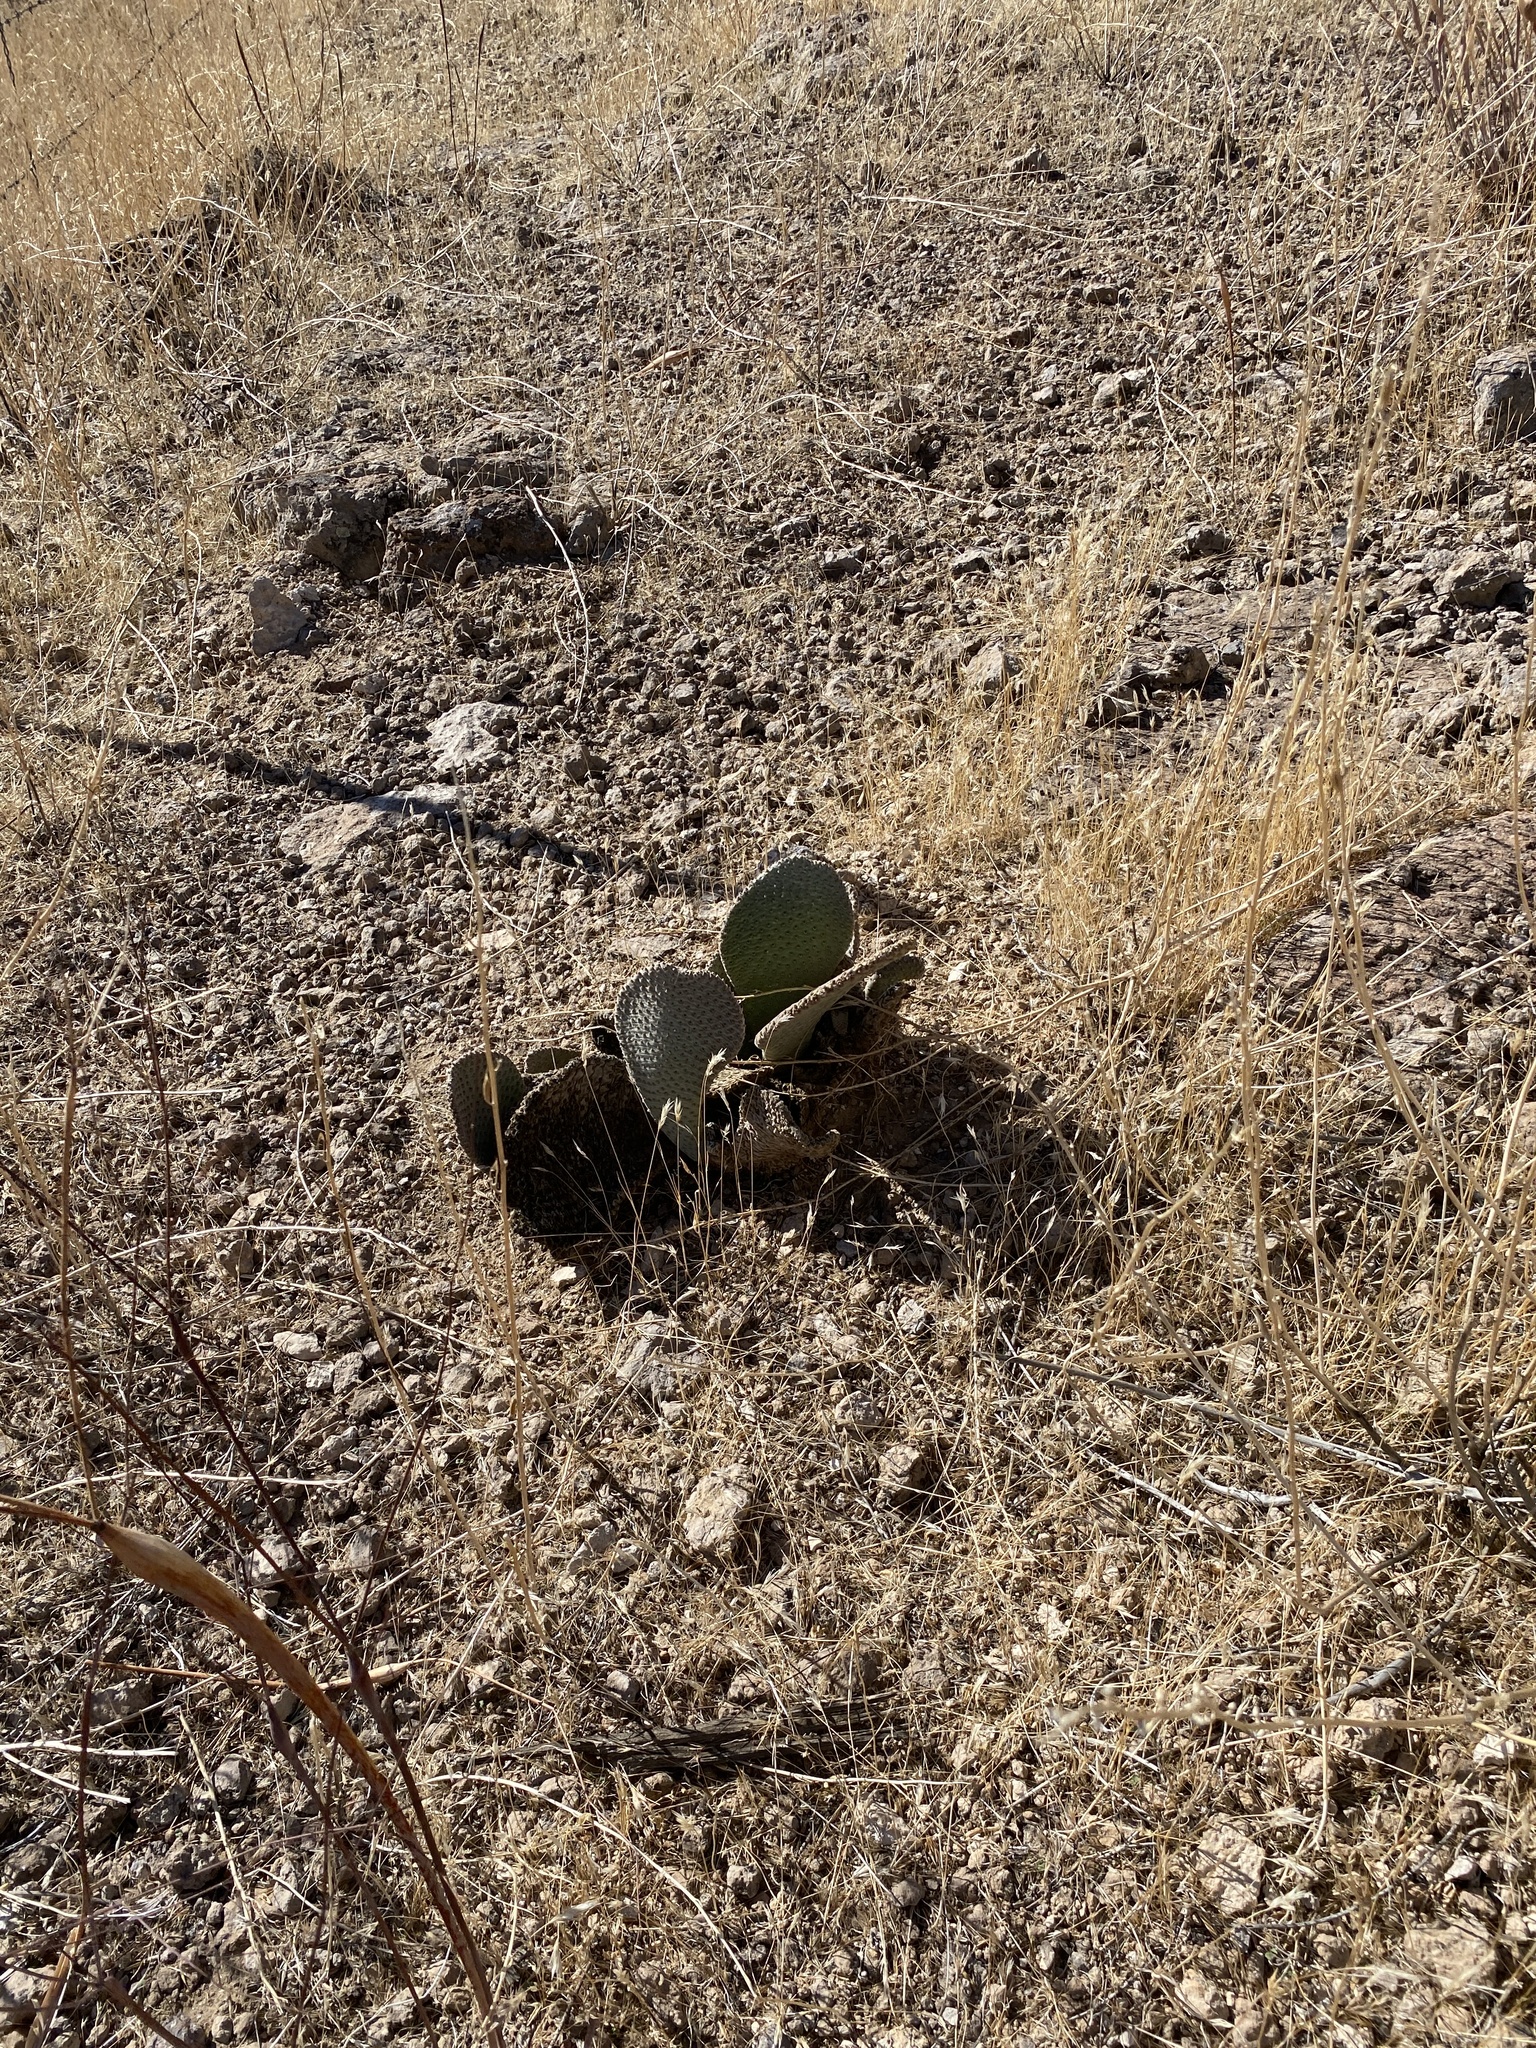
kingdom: Plantae
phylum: Tracheophyta
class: Magnoliopsida
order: Caryophyllales
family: Cactaceae
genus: Opuntia
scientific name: Opuntia basilaris
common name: Beavertail prickly-pear
